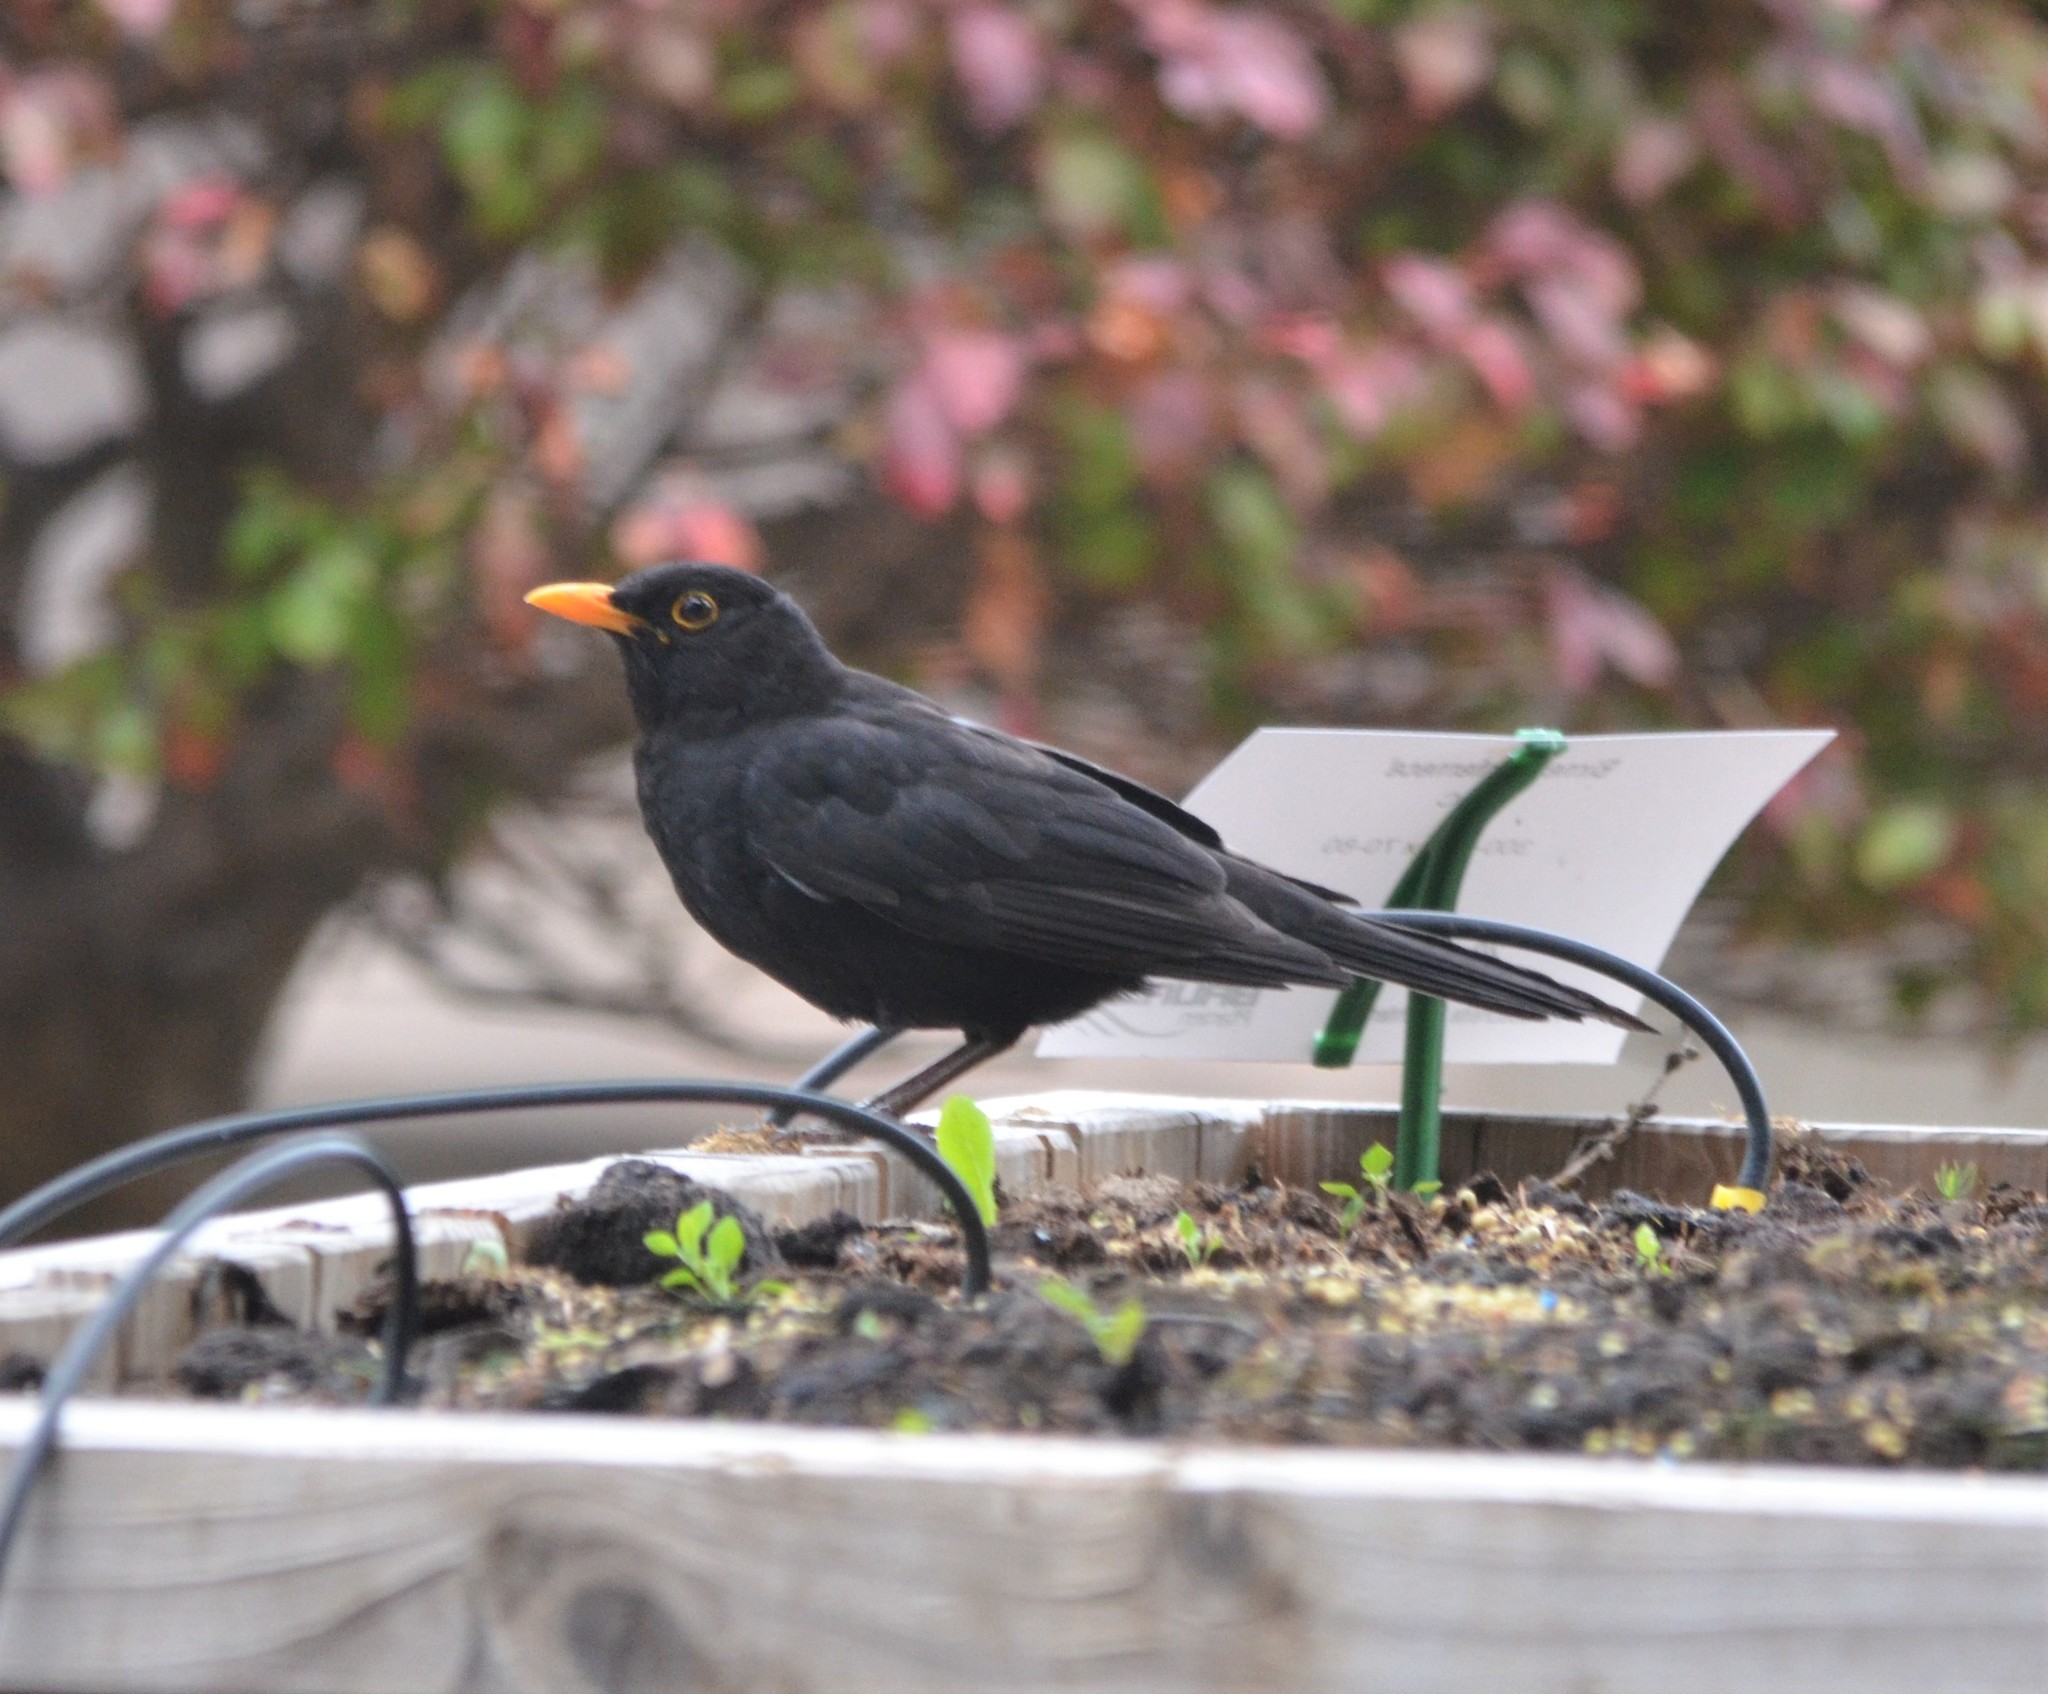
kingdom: Animalia
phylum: Chordata
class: Aves
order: Passeriformes
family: Turdidae
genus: Turdus
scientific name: Turdus merula
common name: Common blackbird
